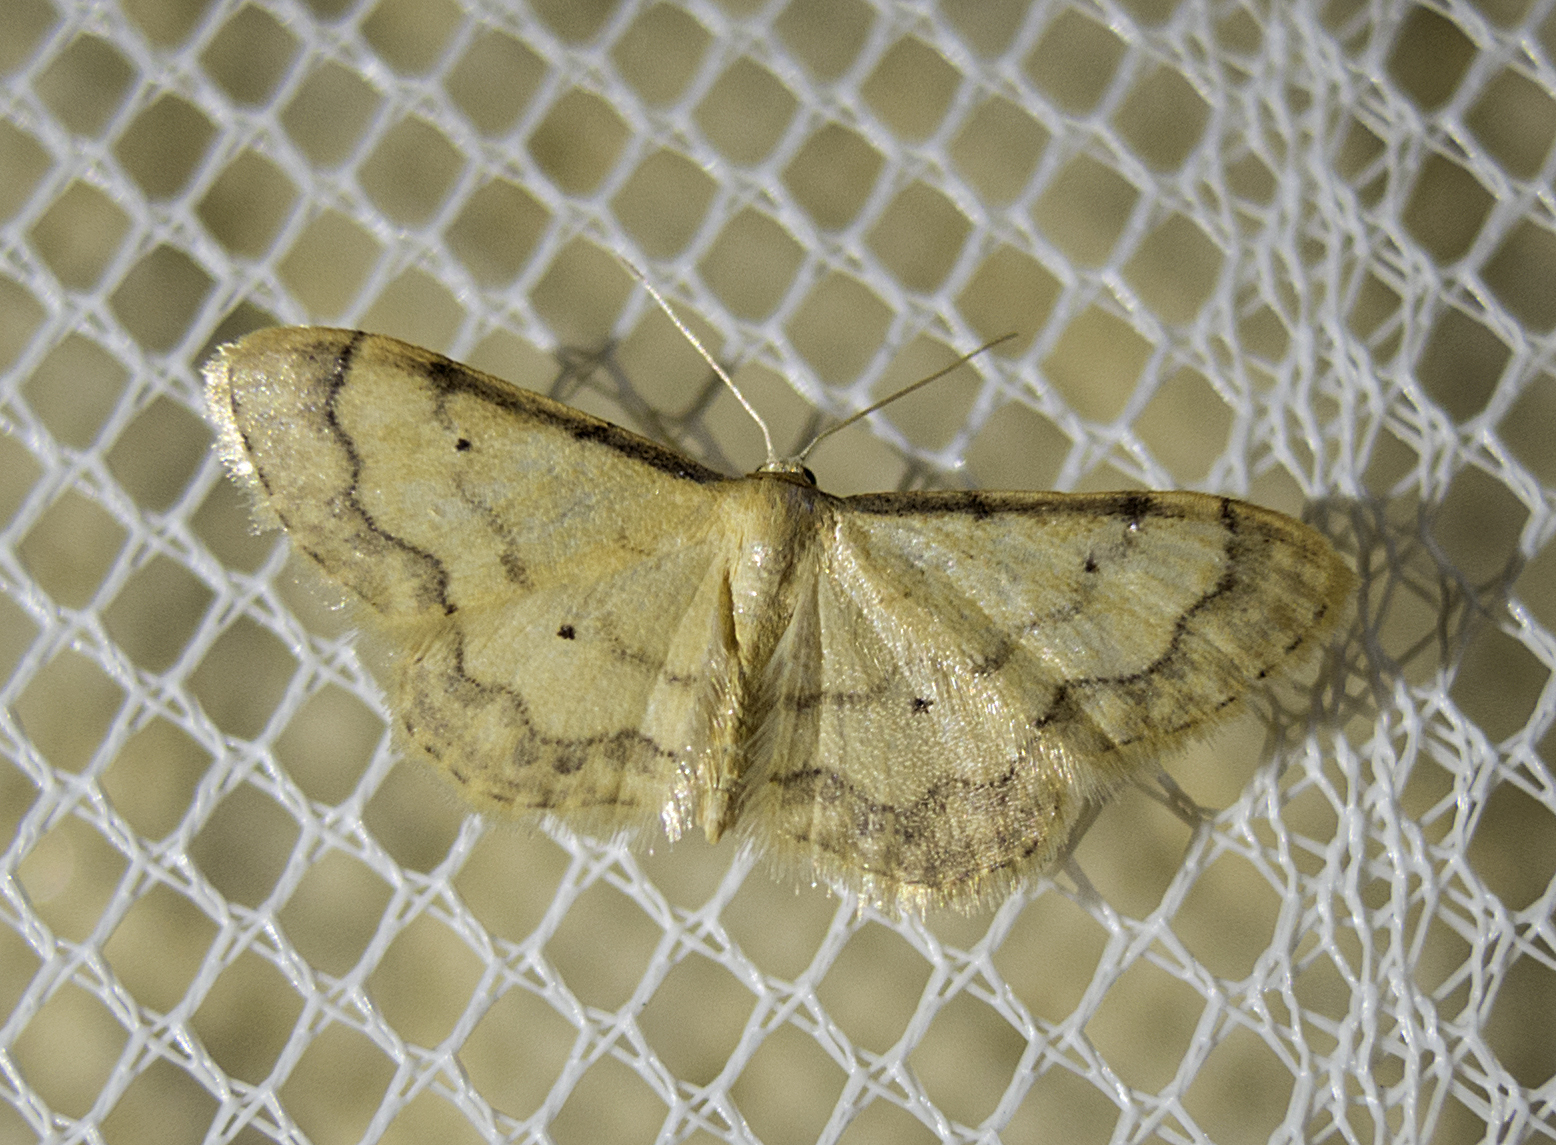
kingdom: Animalia
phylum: Arthropoda
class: Insecta
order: Lepidoptera
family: Geometridae
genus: Idaea
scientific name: Idaea politaria
